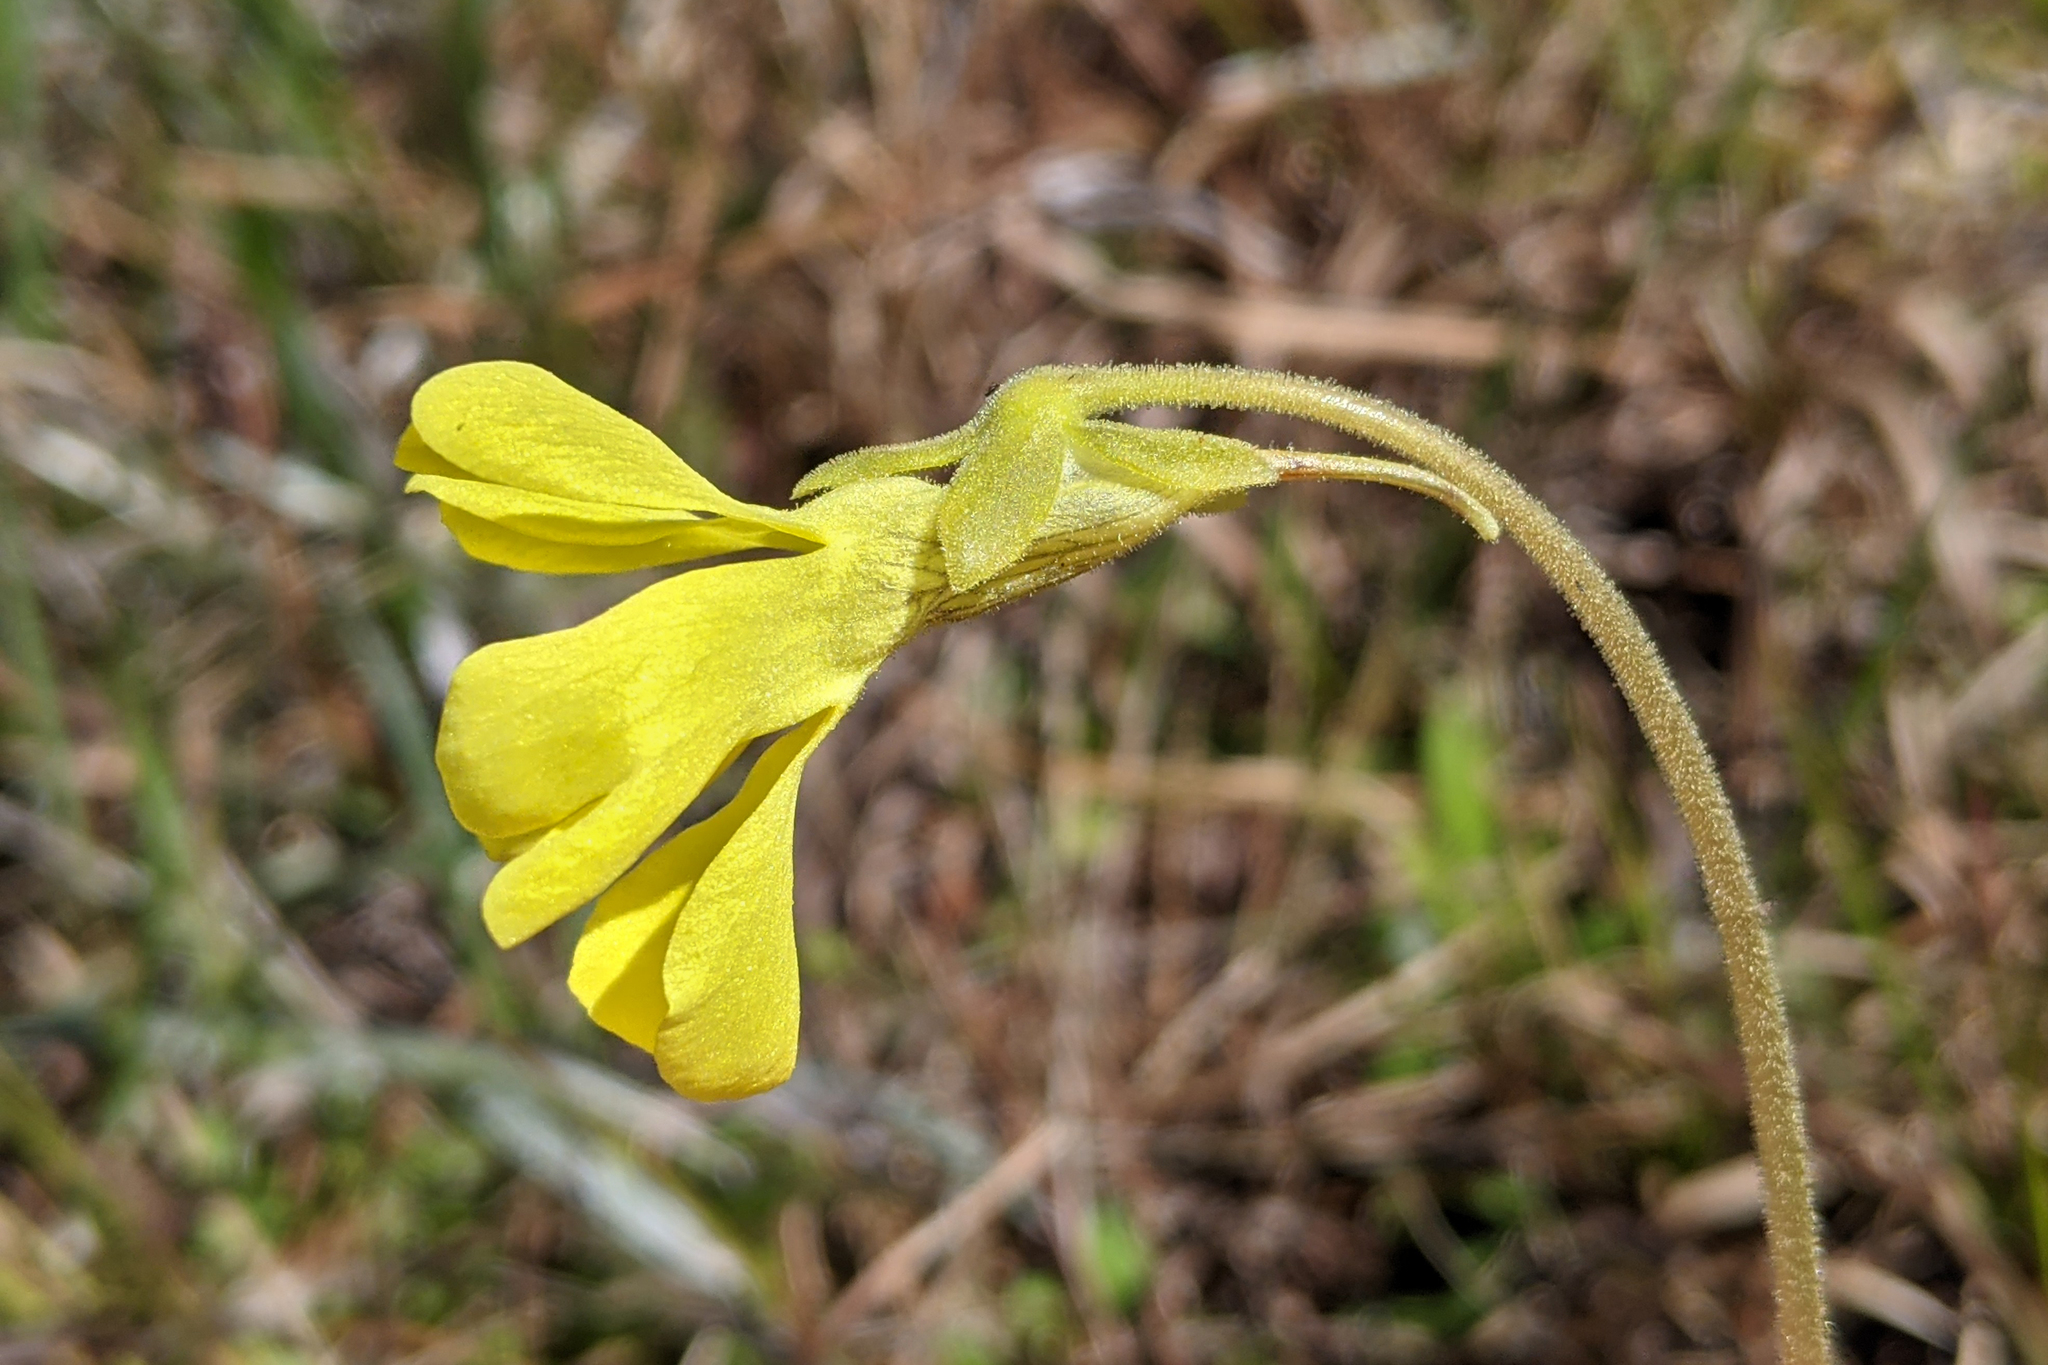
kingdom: Plantae
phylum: Tracheophyta
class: Magnoliopsida
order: Lamiales
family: Lentibulariaceae
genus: Pinguicula
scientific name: Pinguicula lutea
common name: Yellow butterwort
